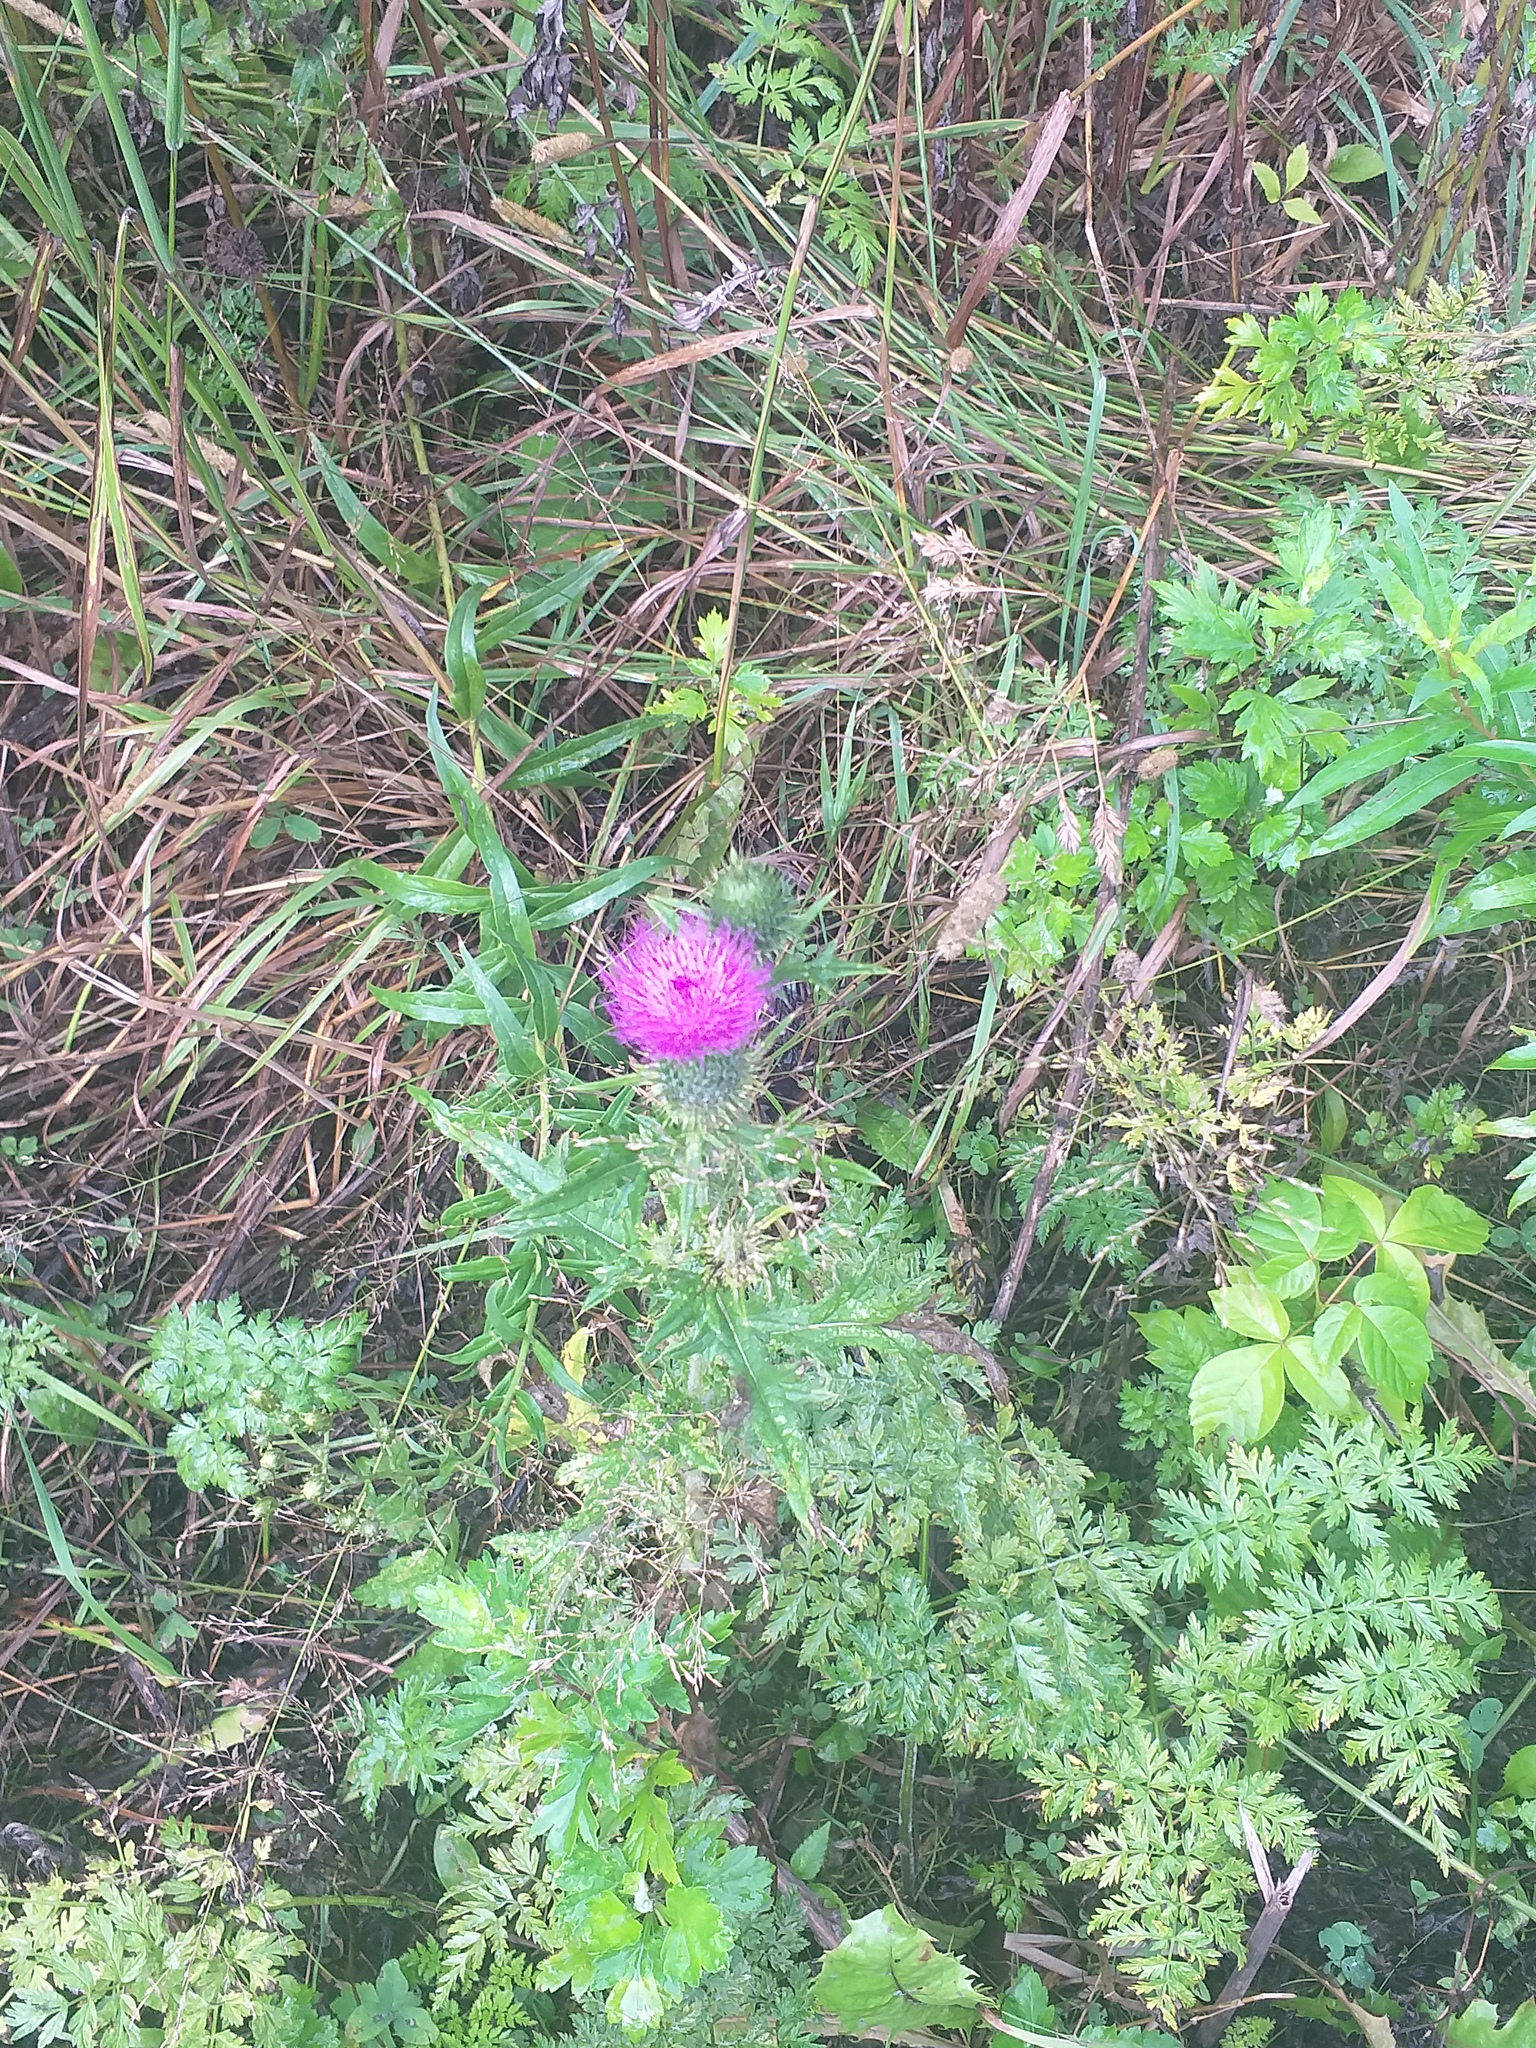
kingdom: Plantae
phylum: Tracheophyta
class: Magnoliopsida
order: Asterales
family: Asteraceae
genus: Cirsium
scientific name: Cirsium vulgare
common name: Bull thistle
